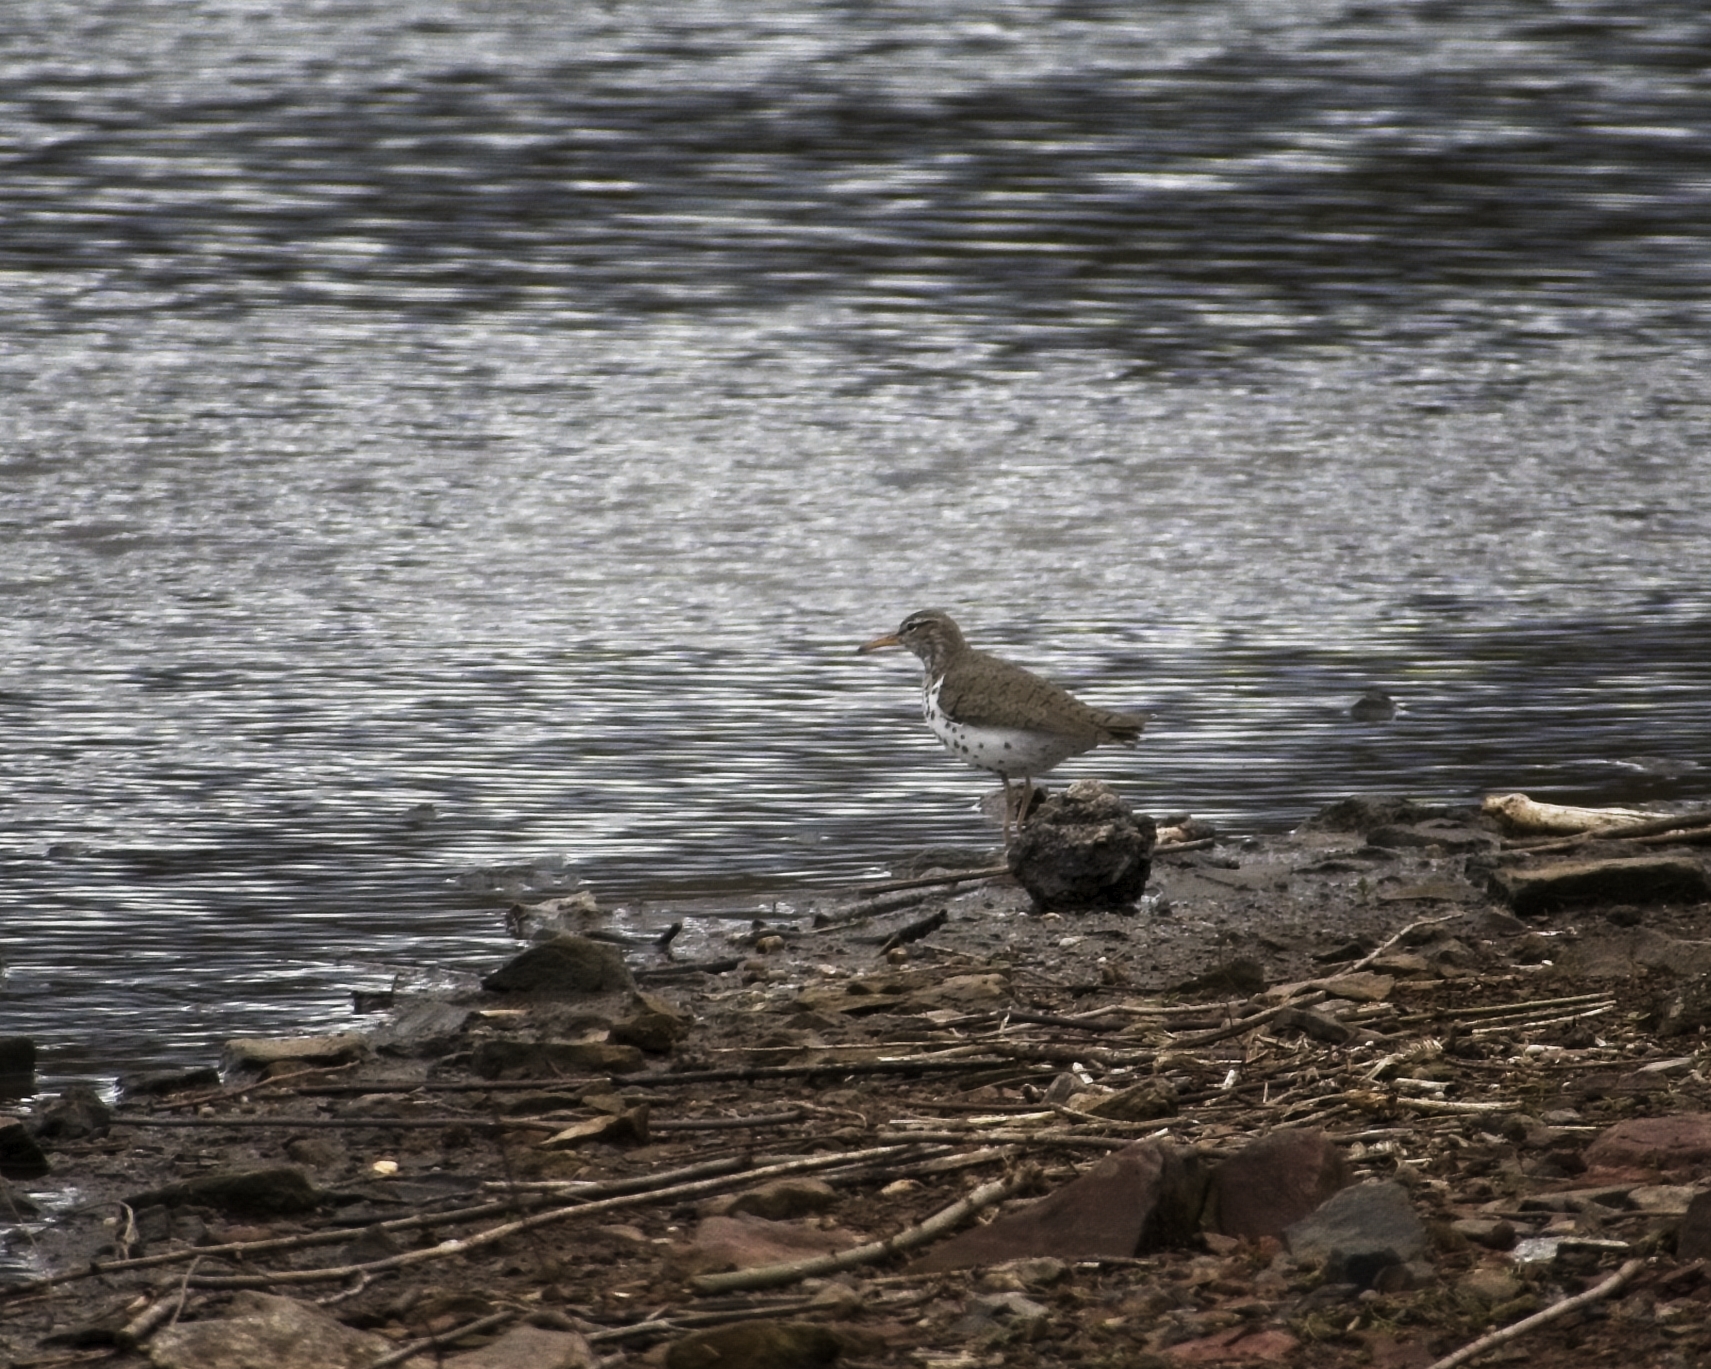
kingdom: Animalia
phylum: Chordata
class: Aves
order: Charadriiformes
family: Scolopacidae
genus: Actitis
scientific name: Actitis macularius
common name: Spotted sandpiper
